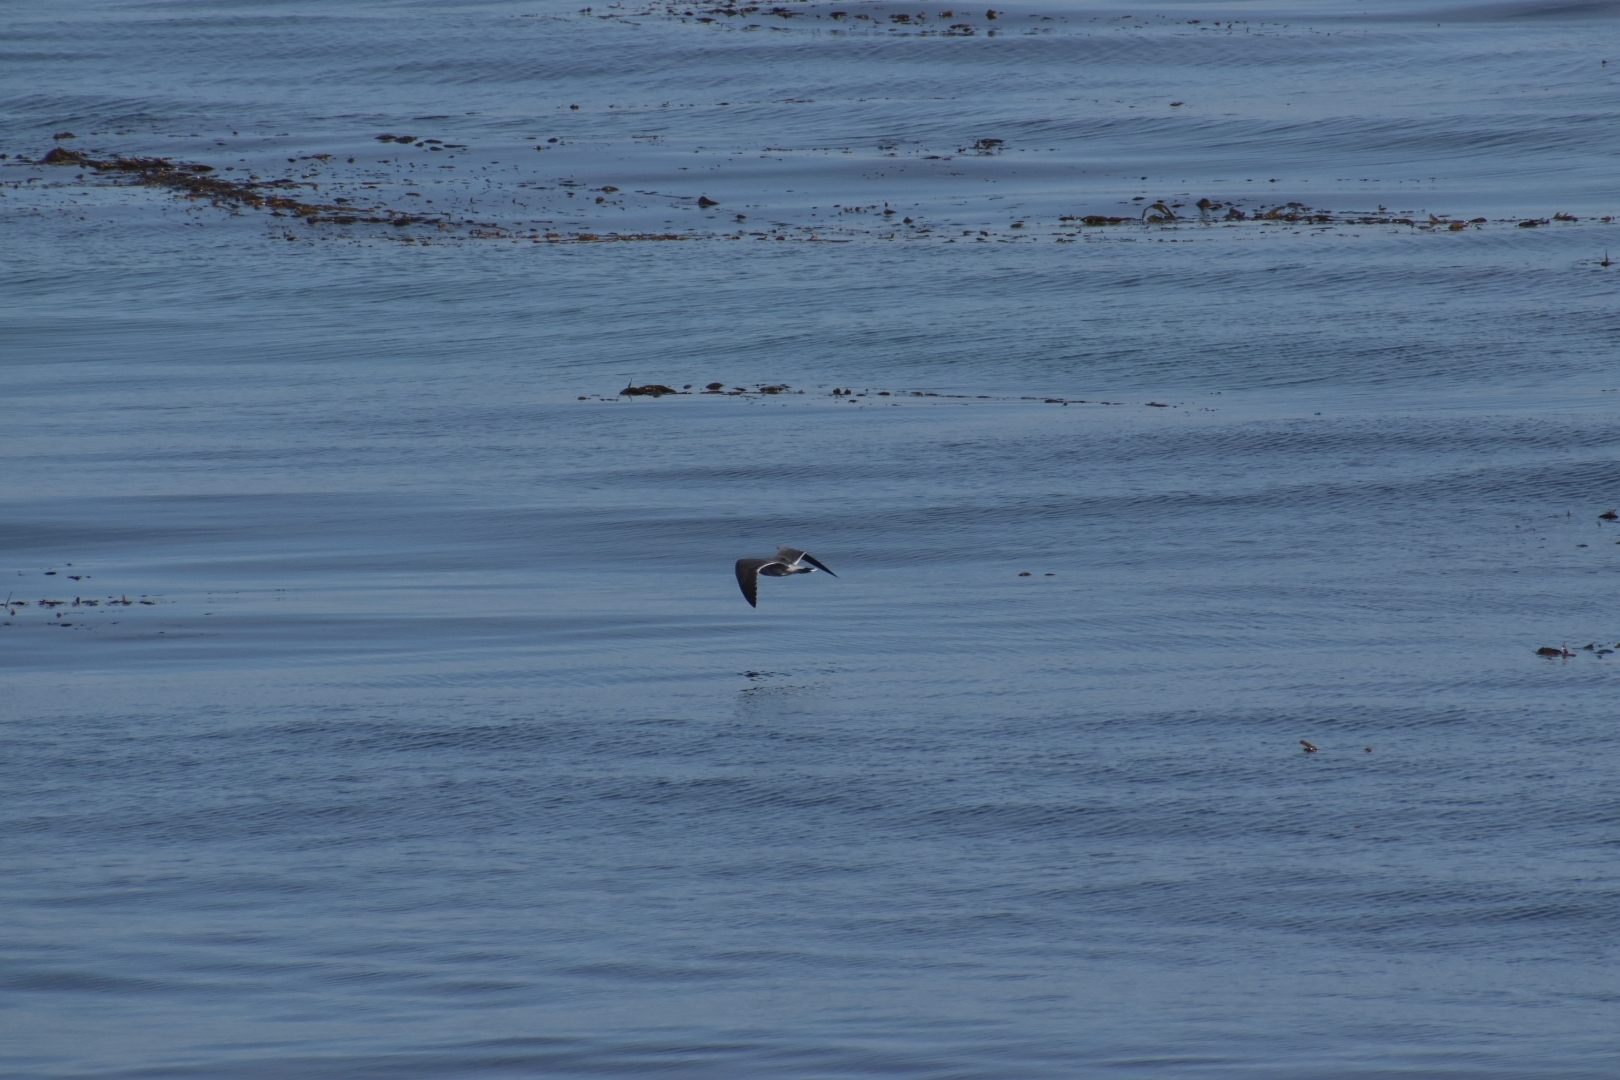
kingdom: Animalia
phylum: Chordata
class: Aves
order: Charadriiformes
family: Laridae
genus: Larus
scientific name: Larus heermanni
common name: Heermann's gull
